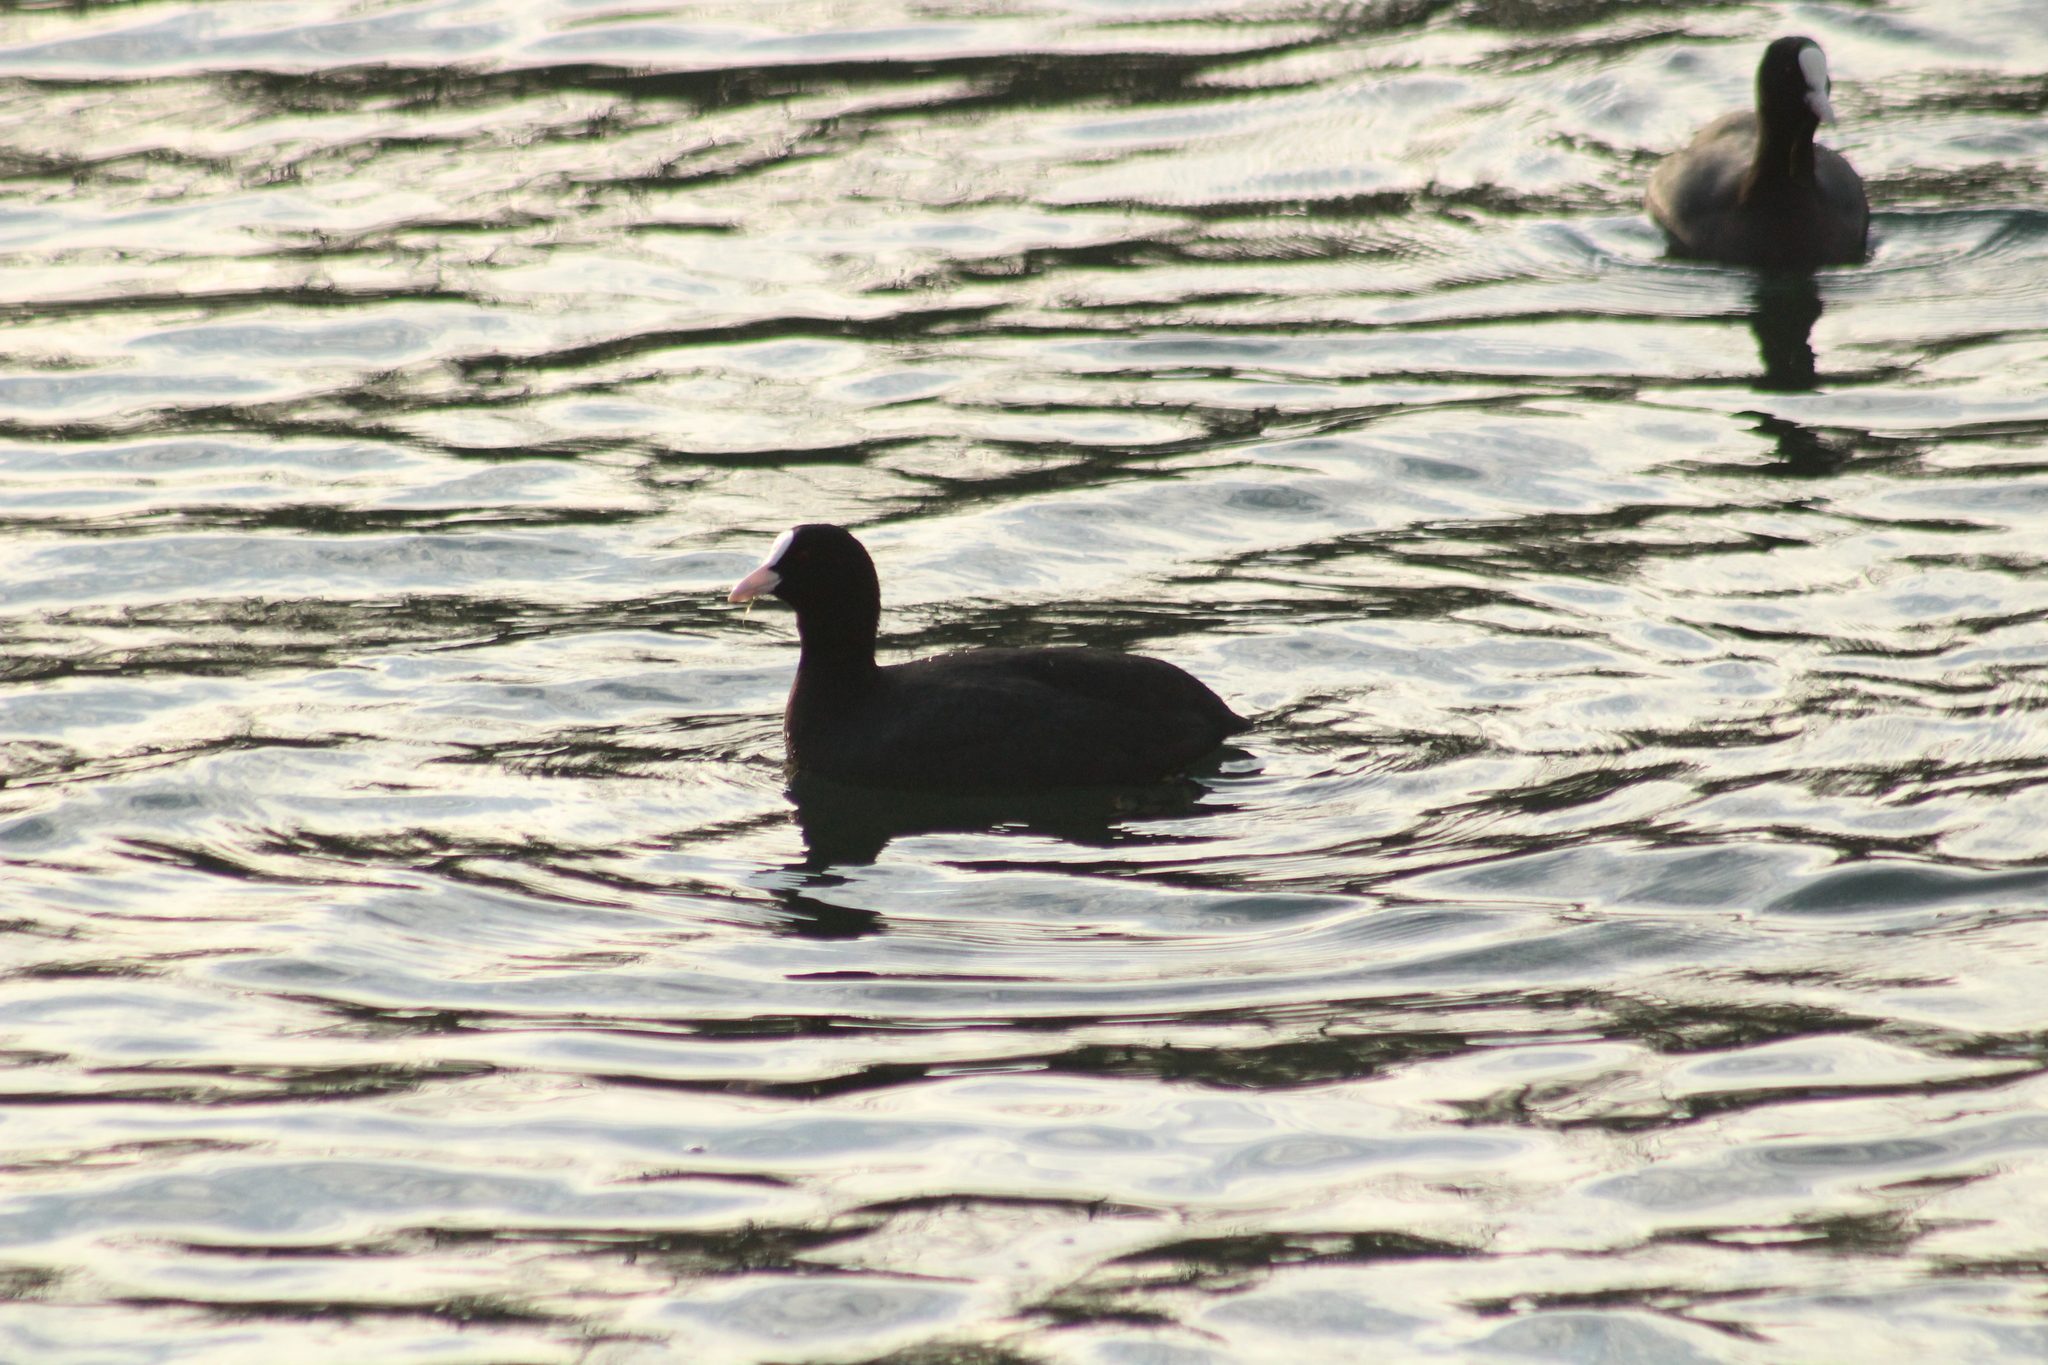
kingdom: Animalia
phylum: Chordata
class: Aves
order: Gruiformes
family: Rallidae
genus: Fulica
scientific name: Fulica atra
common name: Eurasian coot
